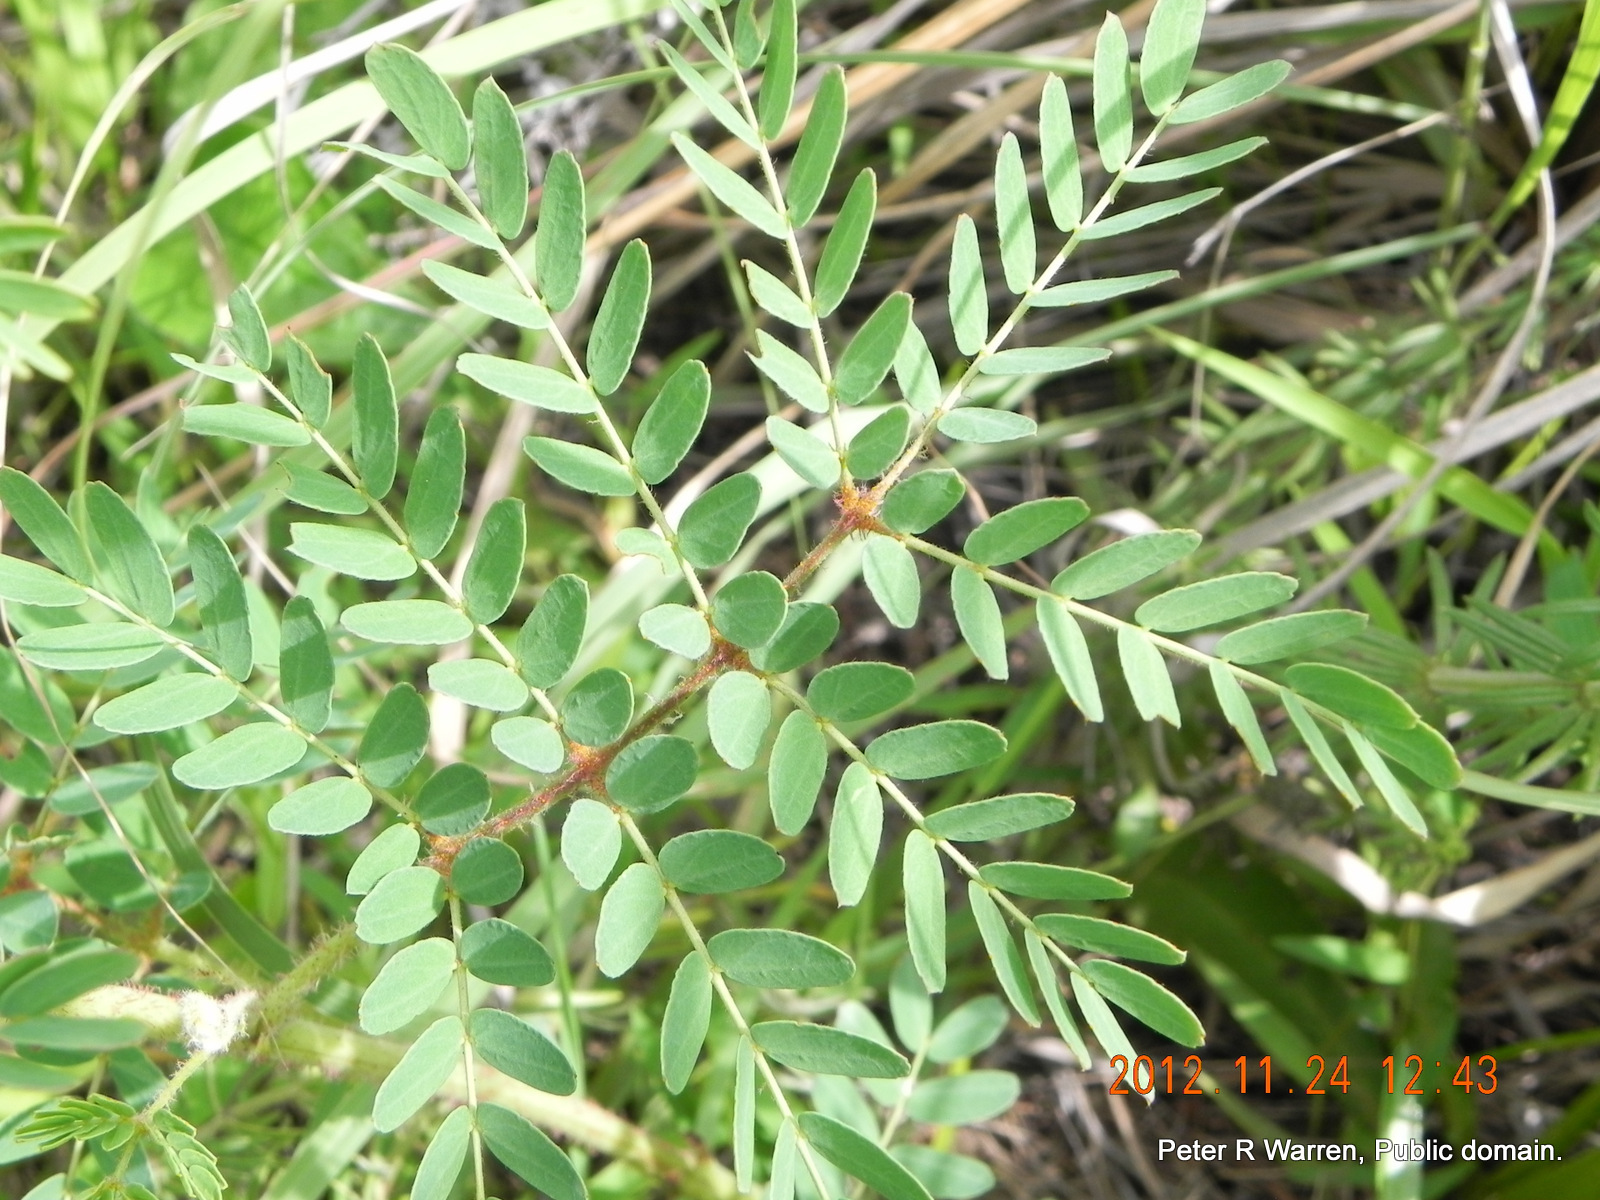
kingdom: Plantae
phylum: Tracheophyta
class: Magnoliopsida
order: Fabales
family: Fabaceae
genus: Pomaria
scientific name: Pomaria sandersonii
